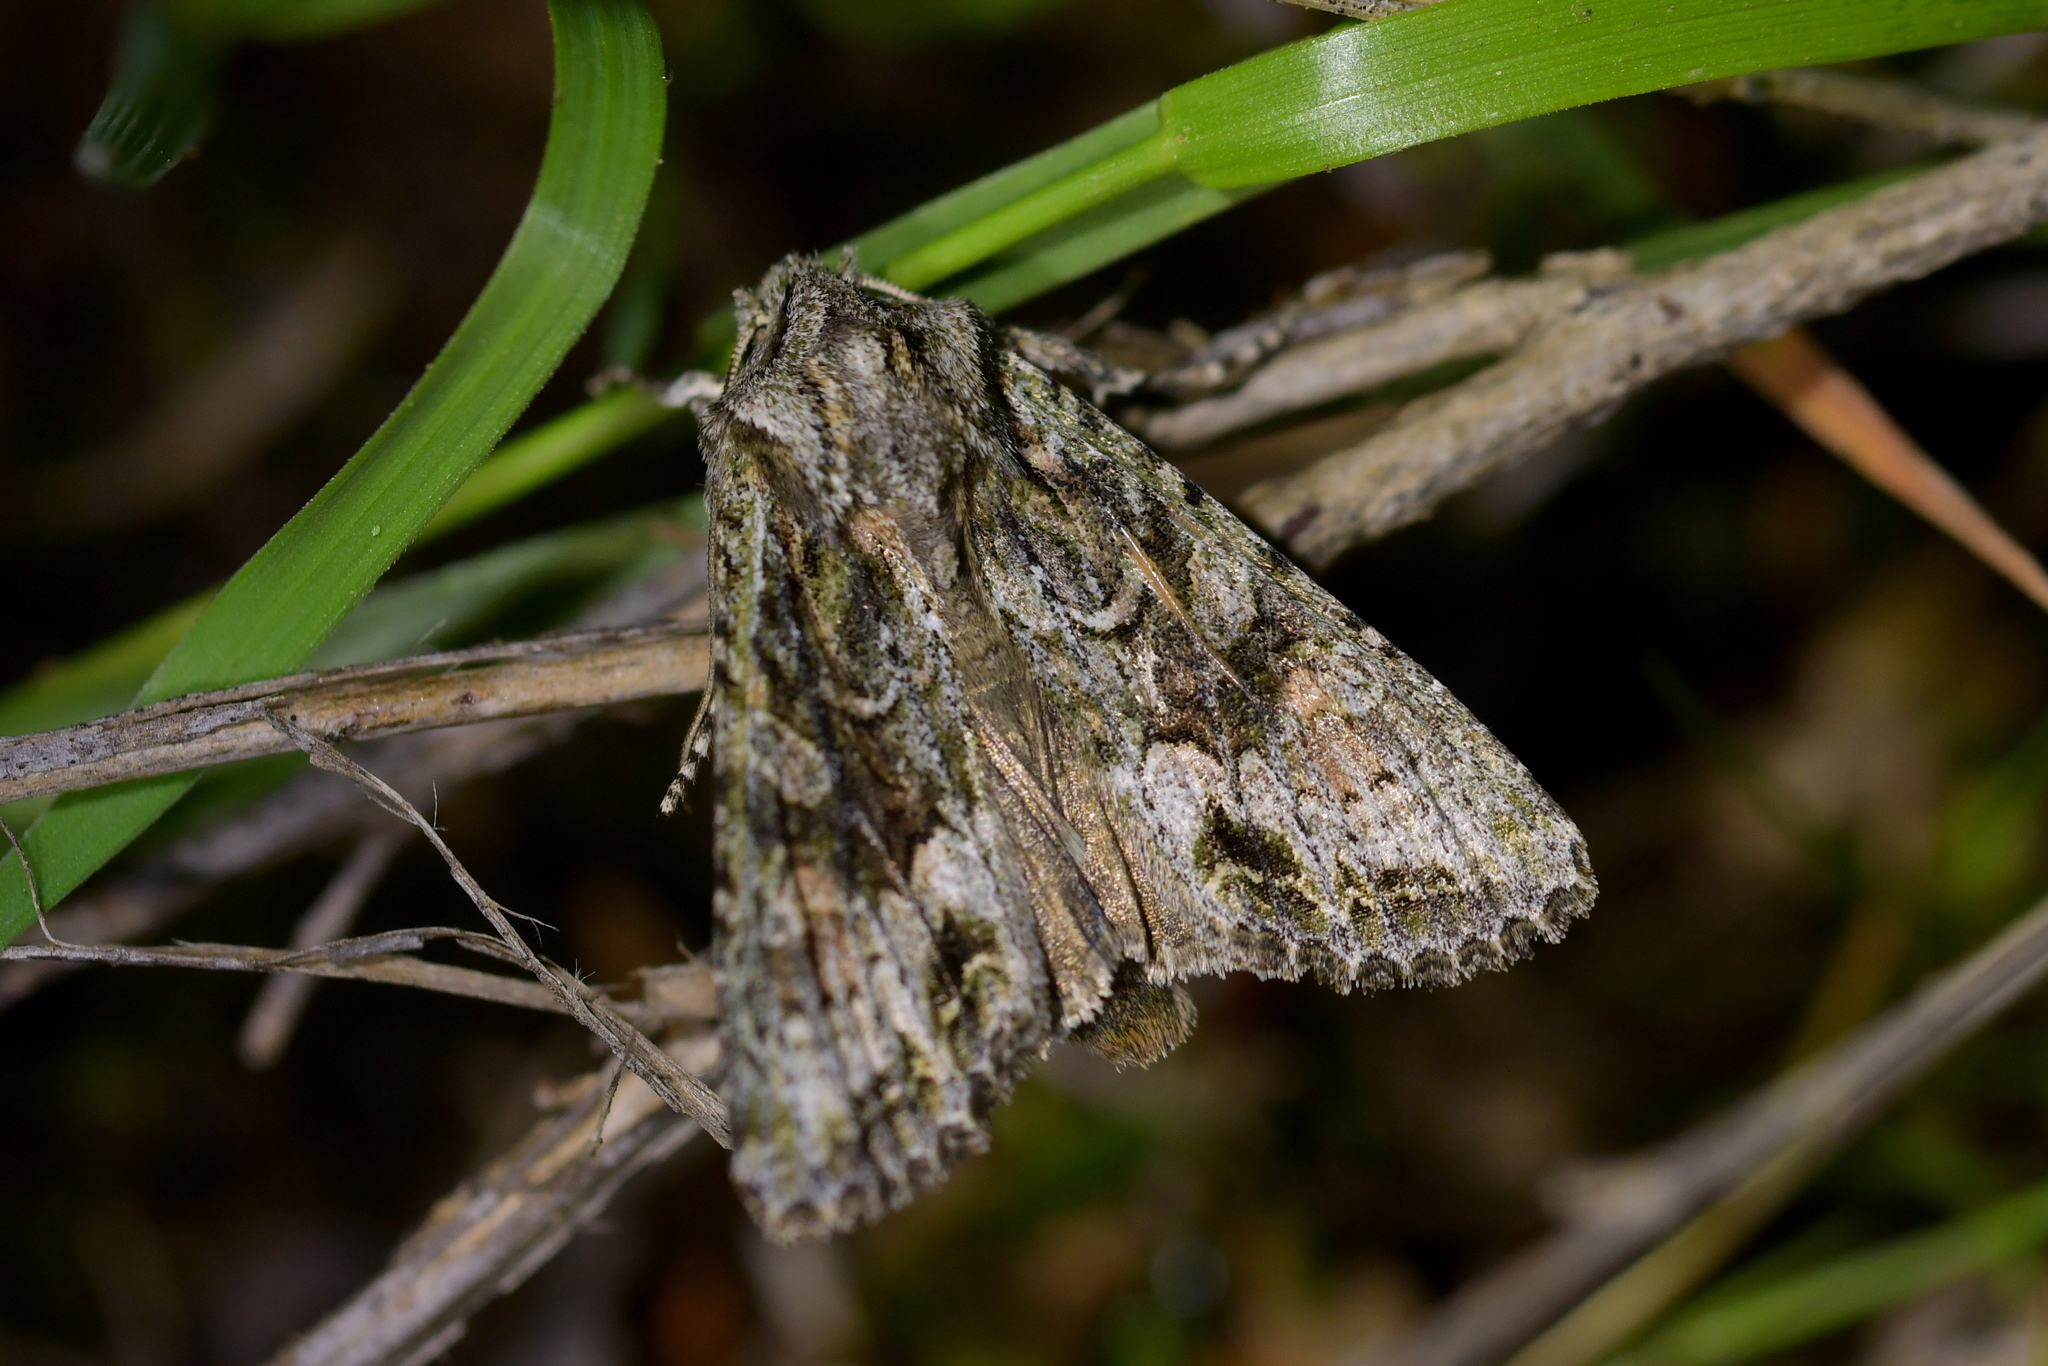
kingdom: Animalia
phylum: Arthropoda
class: Insecta
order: Lepidoptera
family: Noctuidae
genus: Ichneutica
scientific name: Ichneutica mutans
